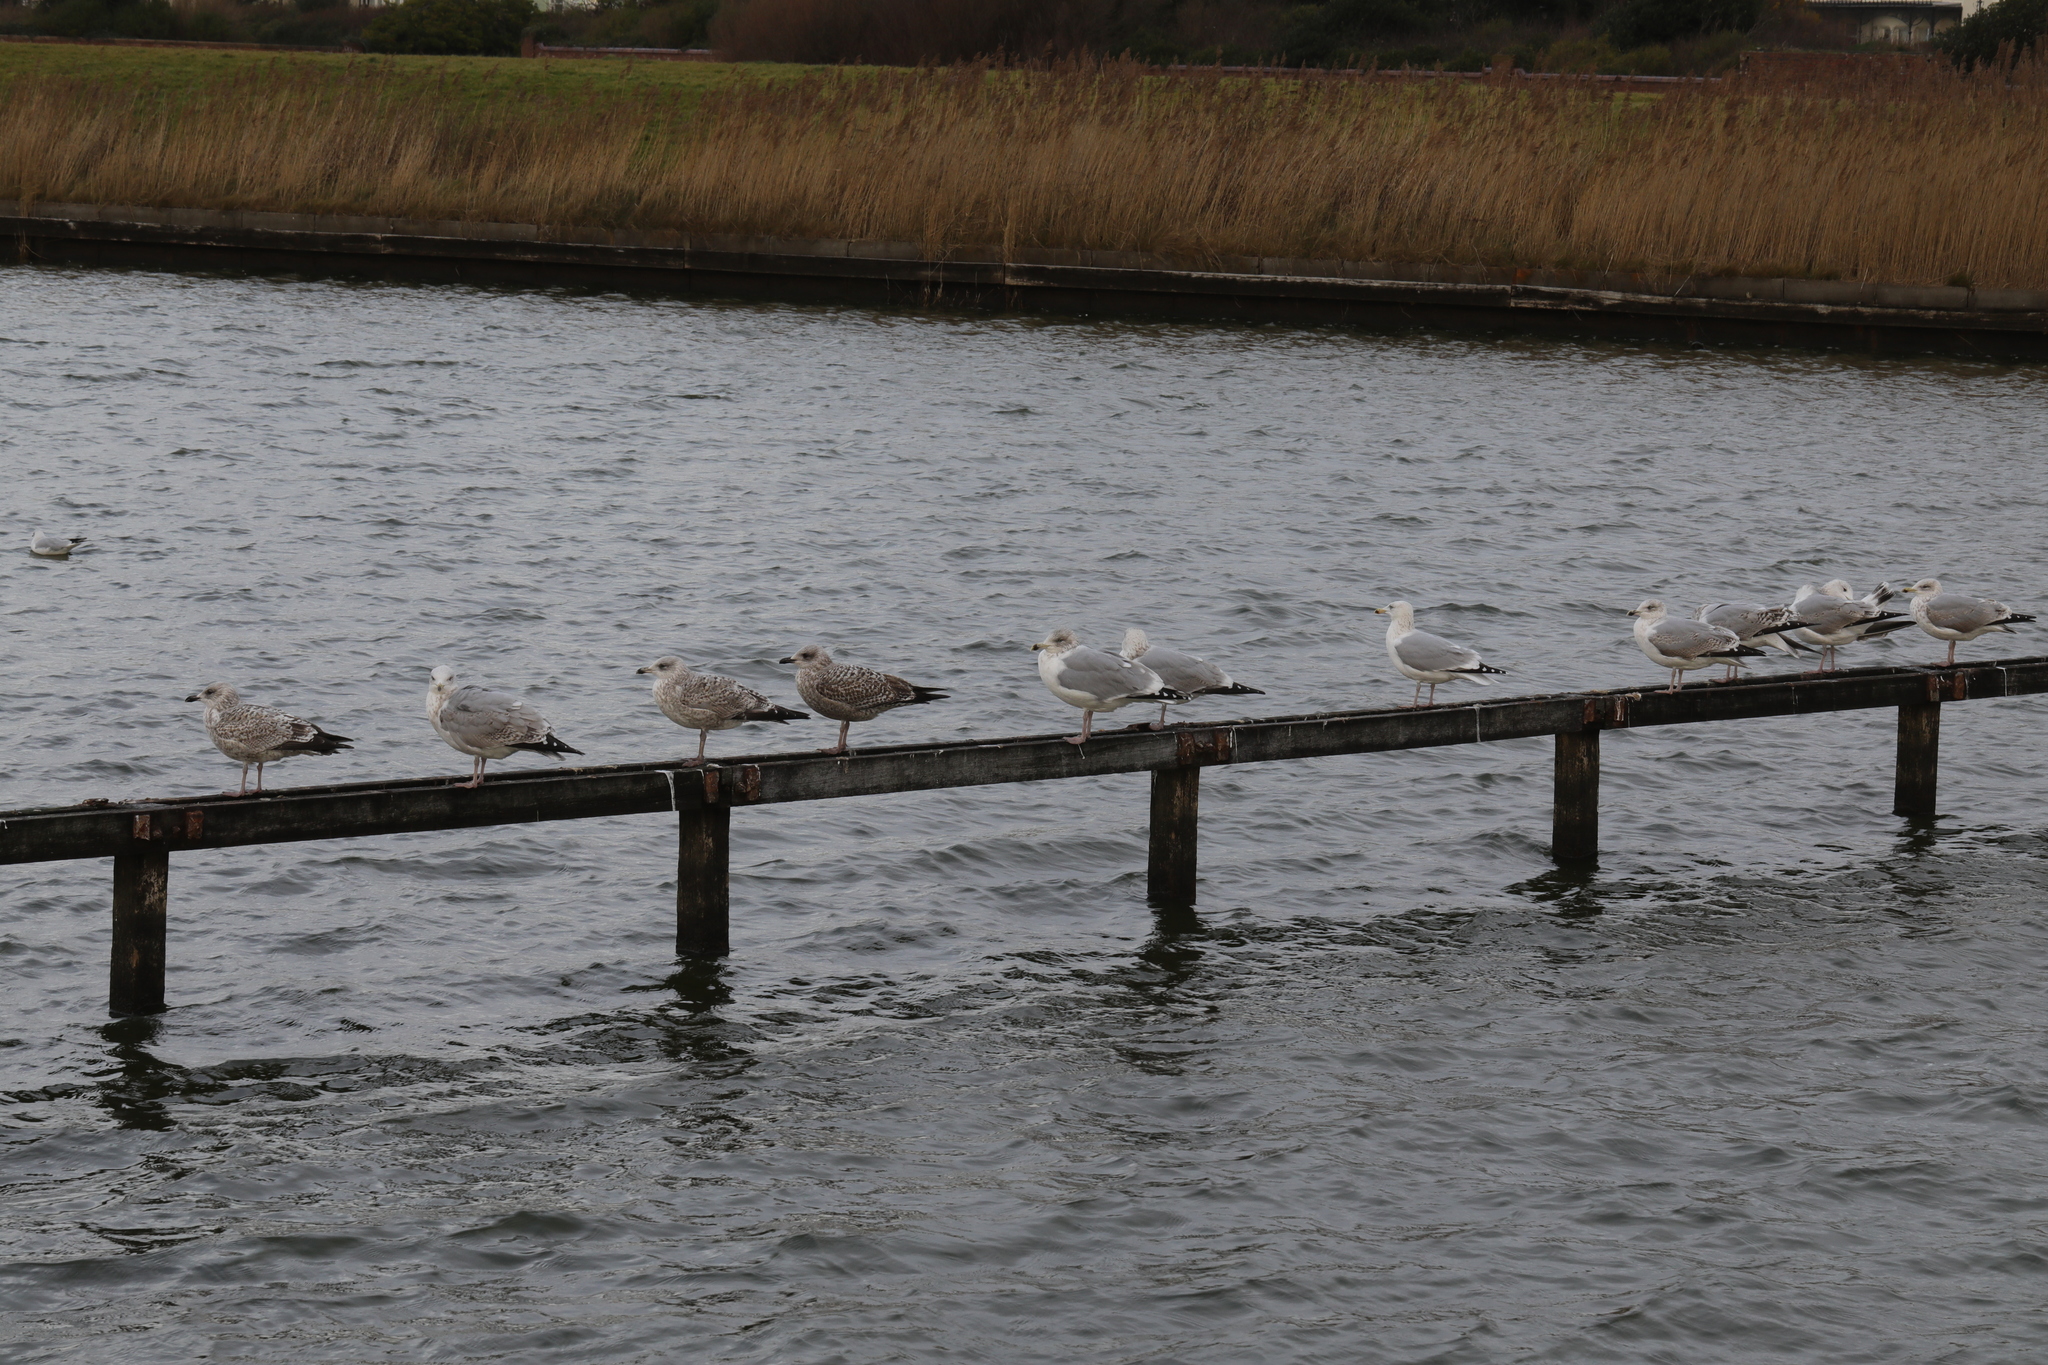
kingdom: Animalia
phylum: Chordata
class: Aves
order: Charadriiformes
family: Laridae
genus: Larus
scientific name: Larus argentatus
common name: Herring gull
